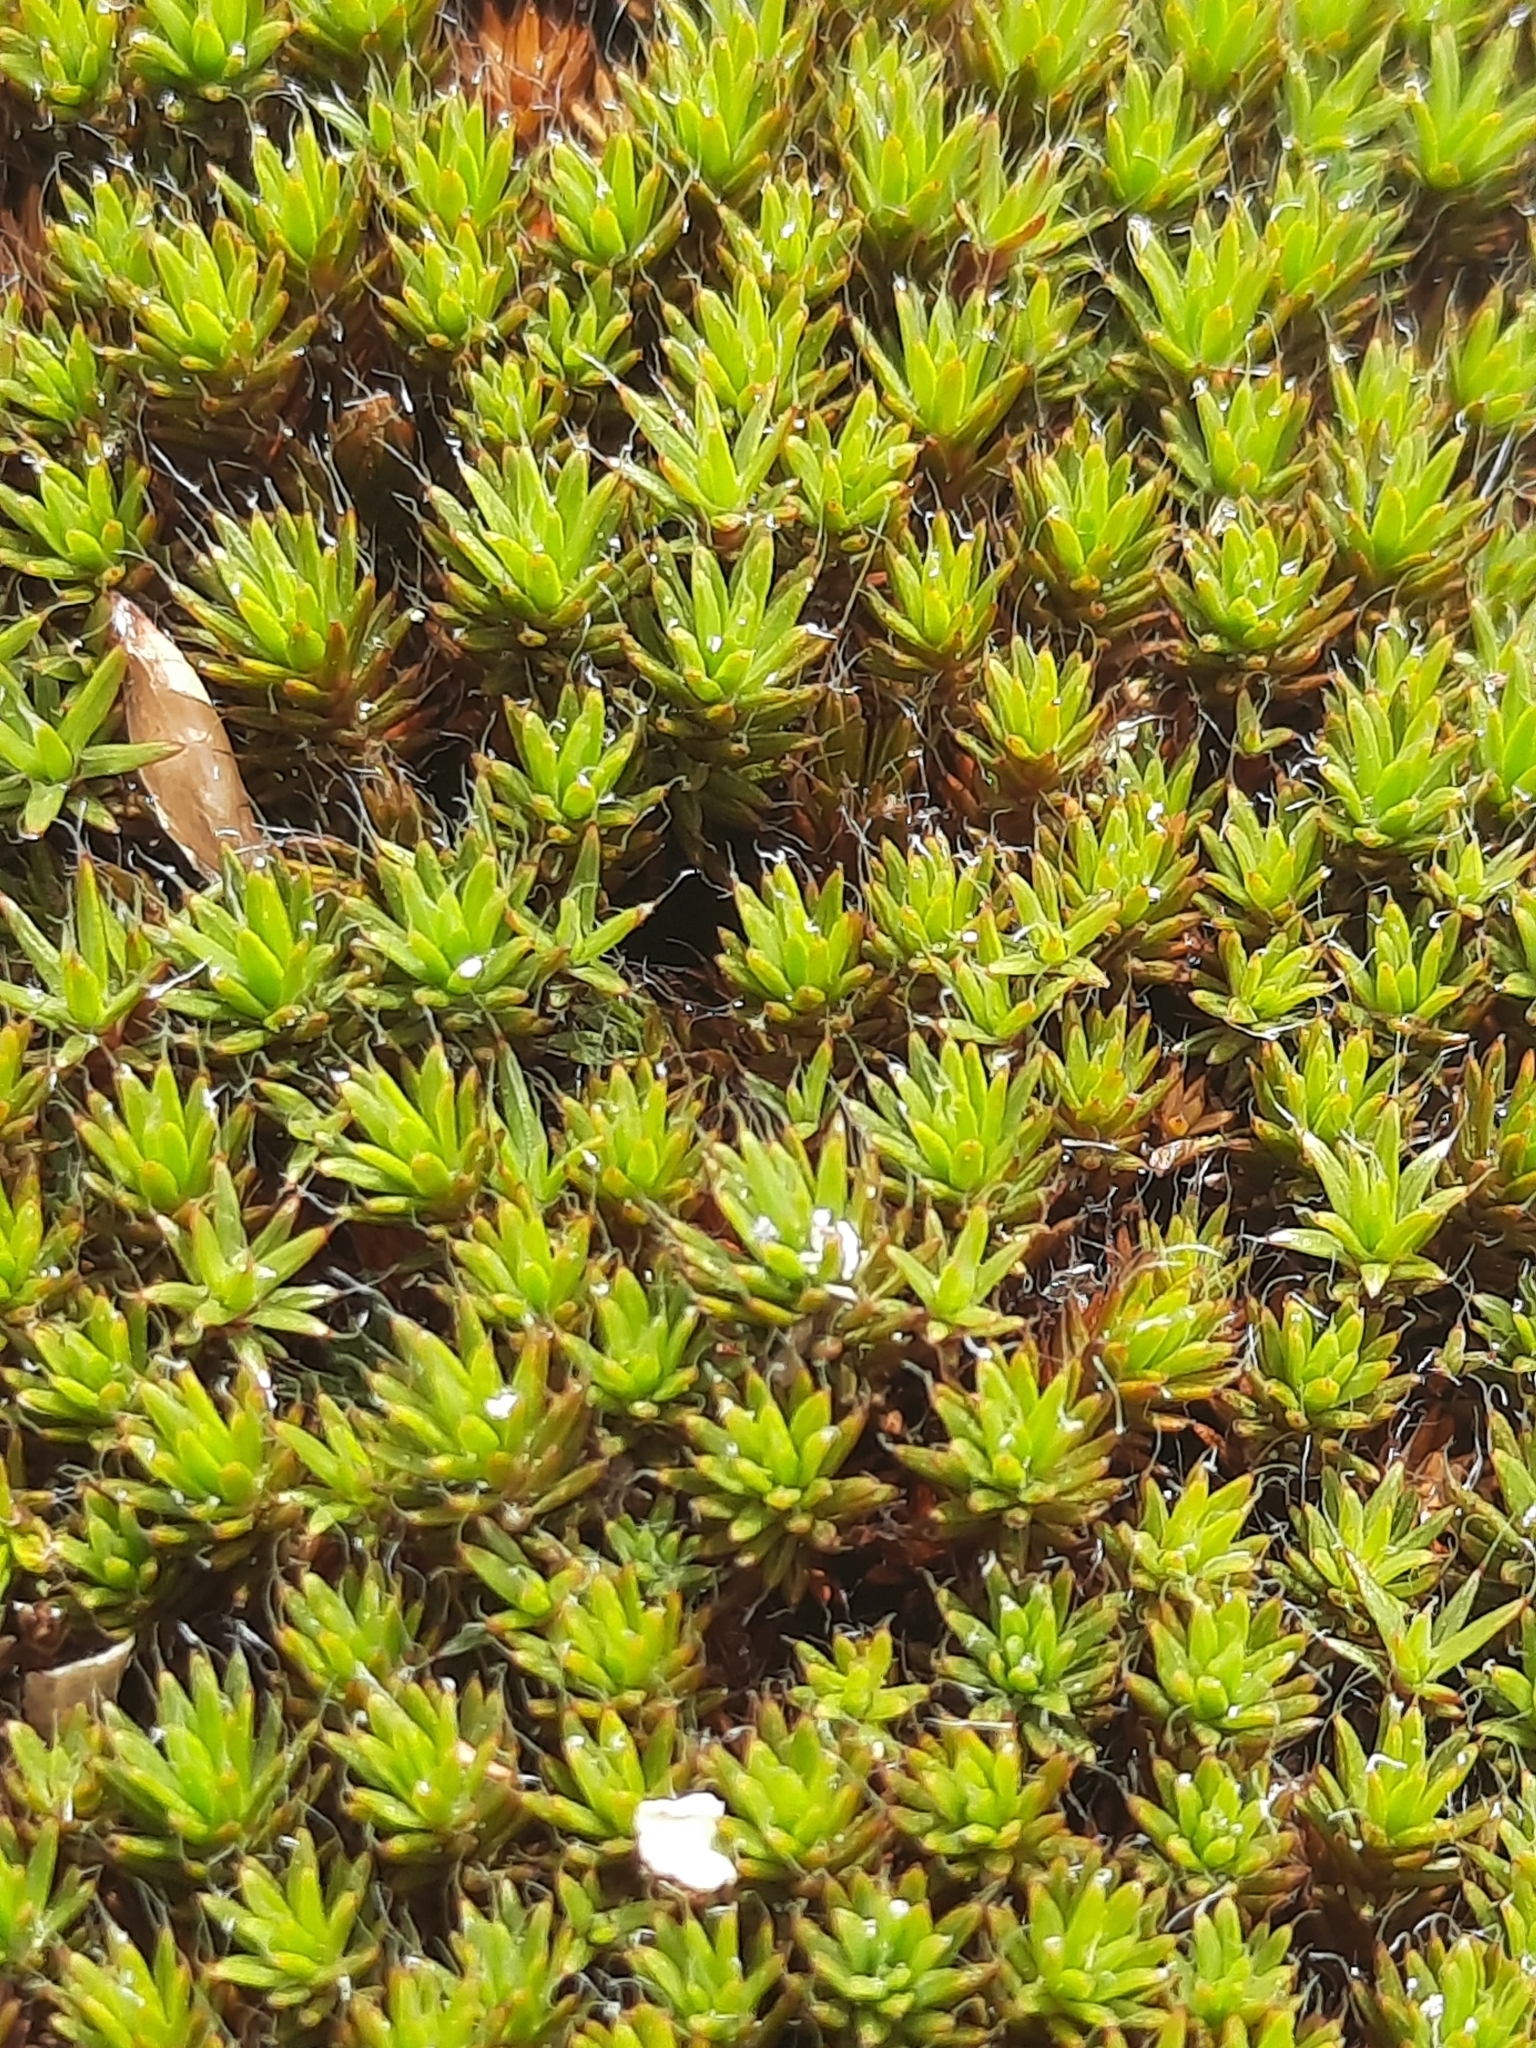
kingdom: Plantae
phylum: Bryophyta
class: Polytrichopsida
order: Polytrichales
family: Polytrichaceae
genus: Polytrichum
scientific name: Polytrichum piliferum
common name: Bristly haircap
